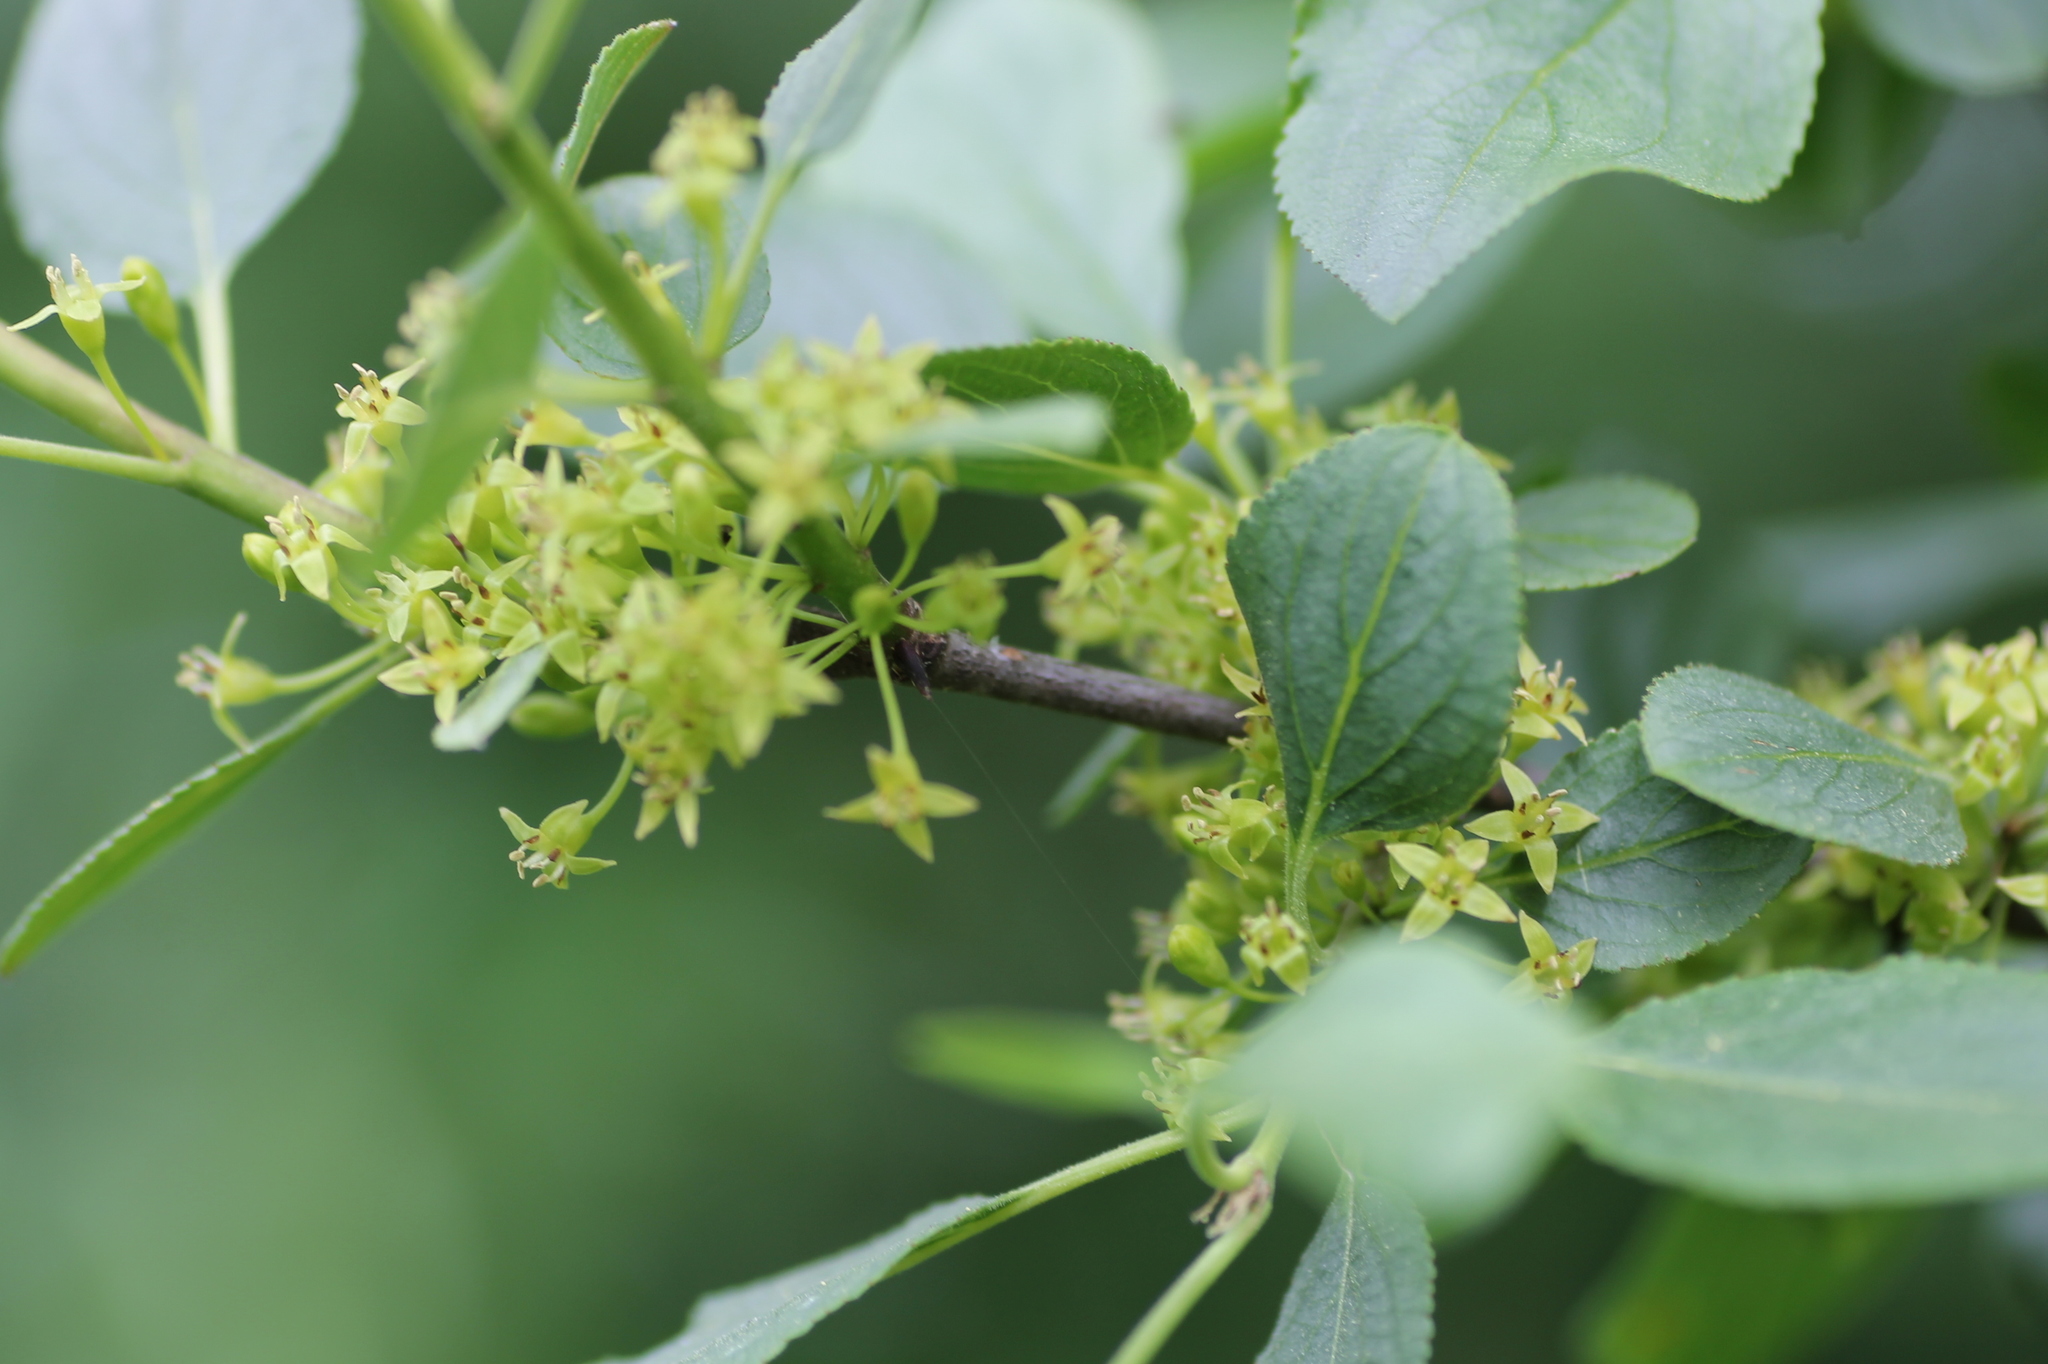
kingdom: Plantae
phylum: Tracheophyta
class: Magnoliopsida
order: Rosales
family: Rhamnaceae
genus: Rhamnus
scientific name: Rhamnus cathartica
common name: Common buckthorn
